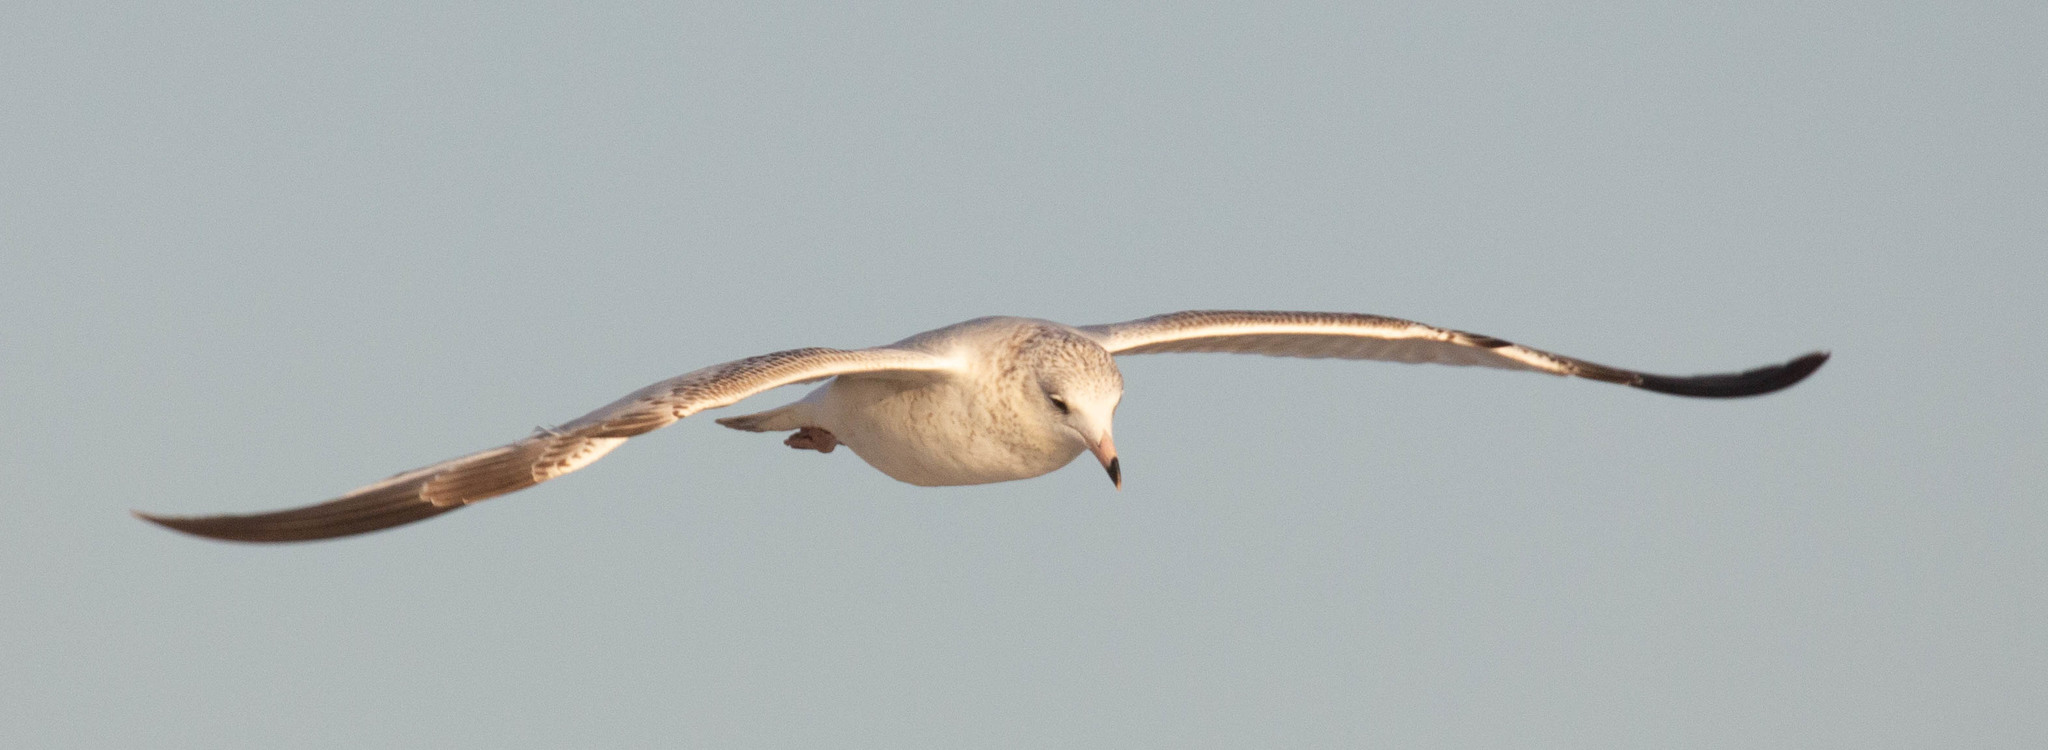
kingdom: Animalia
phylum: Chordata
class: Aves
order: Charadriiformes
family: Laridae
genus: Larus
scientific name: Larus delawarensis
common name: Ring-billed gull
